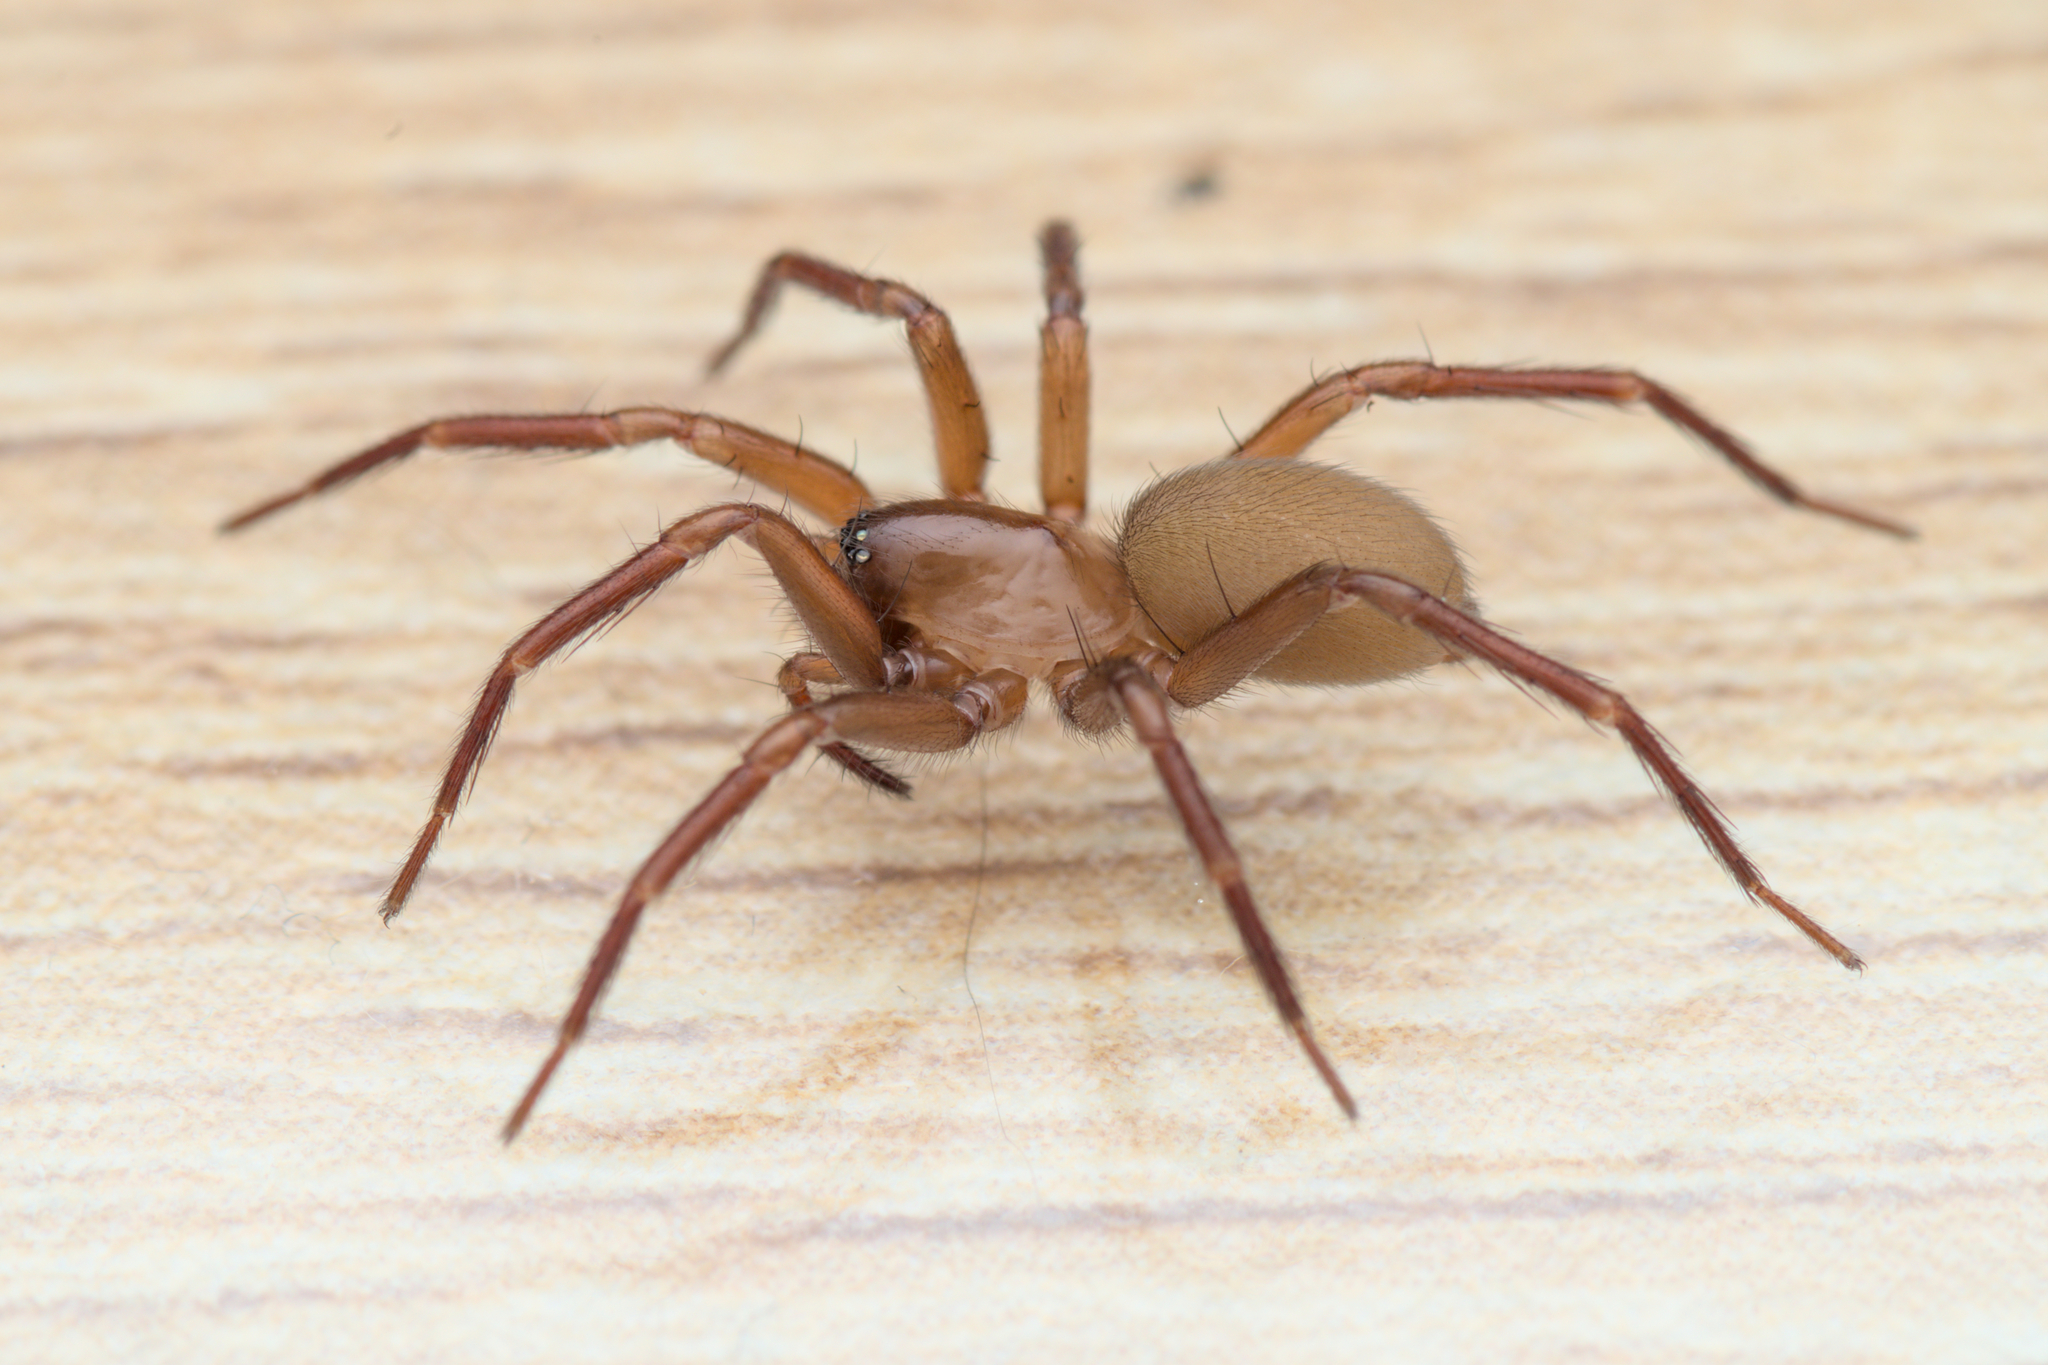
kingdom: Animalia
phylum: Arthropoda
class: Arachnida
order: Araneae
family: Hahniidae
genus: Cicurina
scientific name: Cicurina cicur
